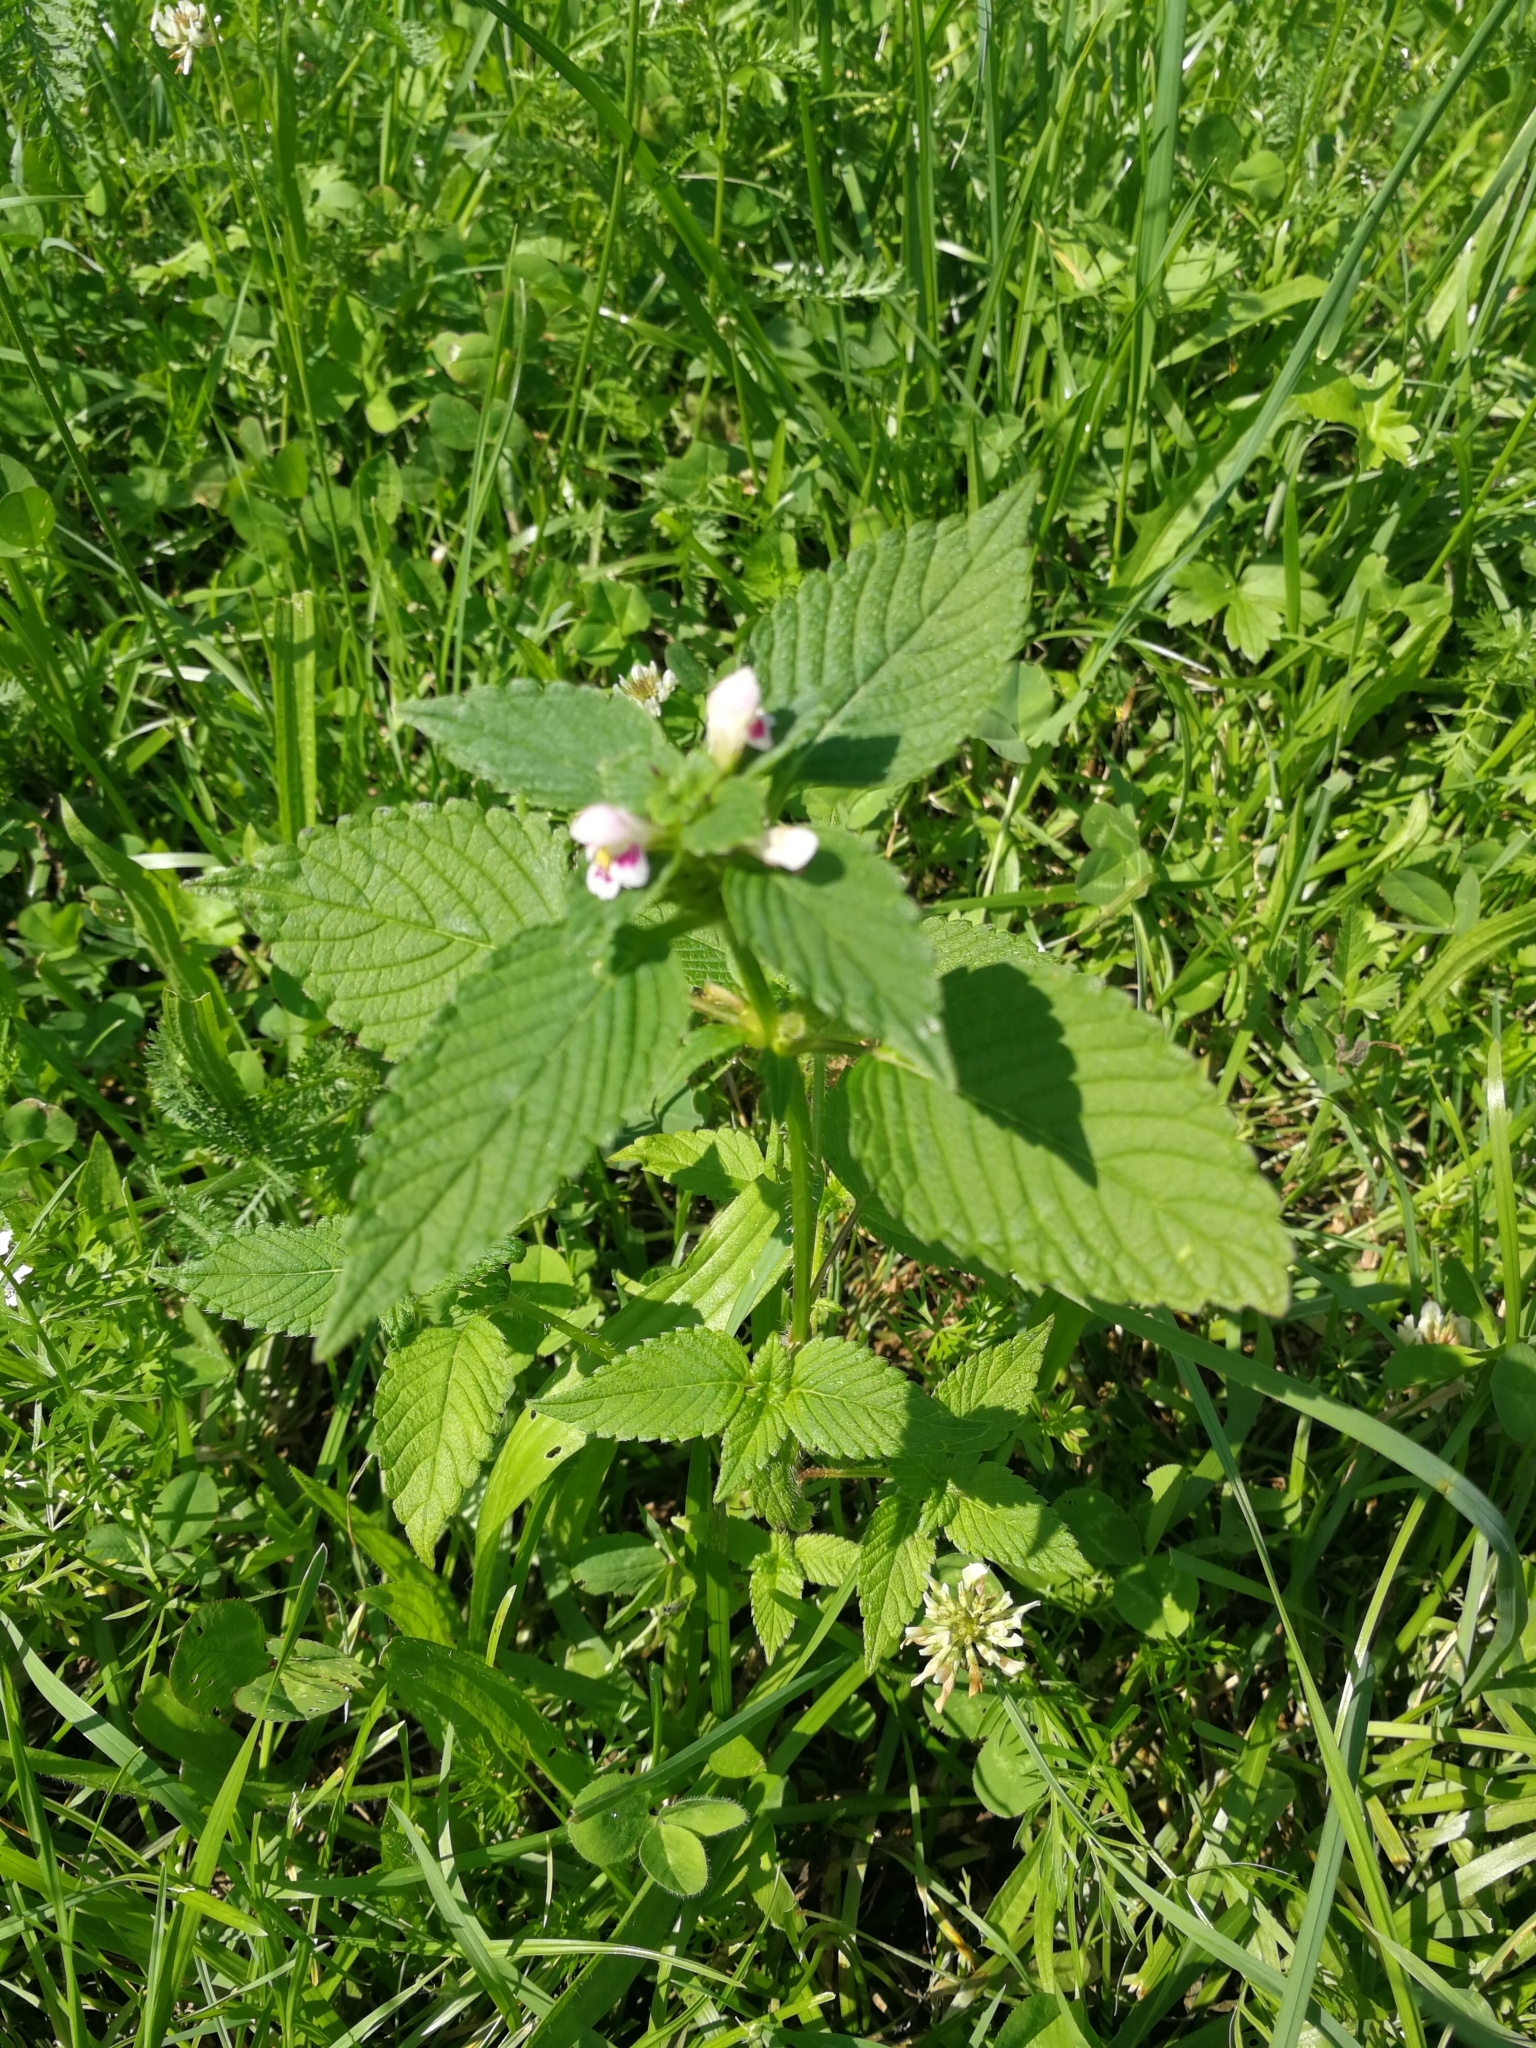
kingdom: Plantae
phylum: Tracheophyta
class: Magnoliopsida
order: Lamiales
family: Lamiaceae
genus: Galeopsis
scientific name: Galeopsis tetrahit
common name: Common hemp-nettle
